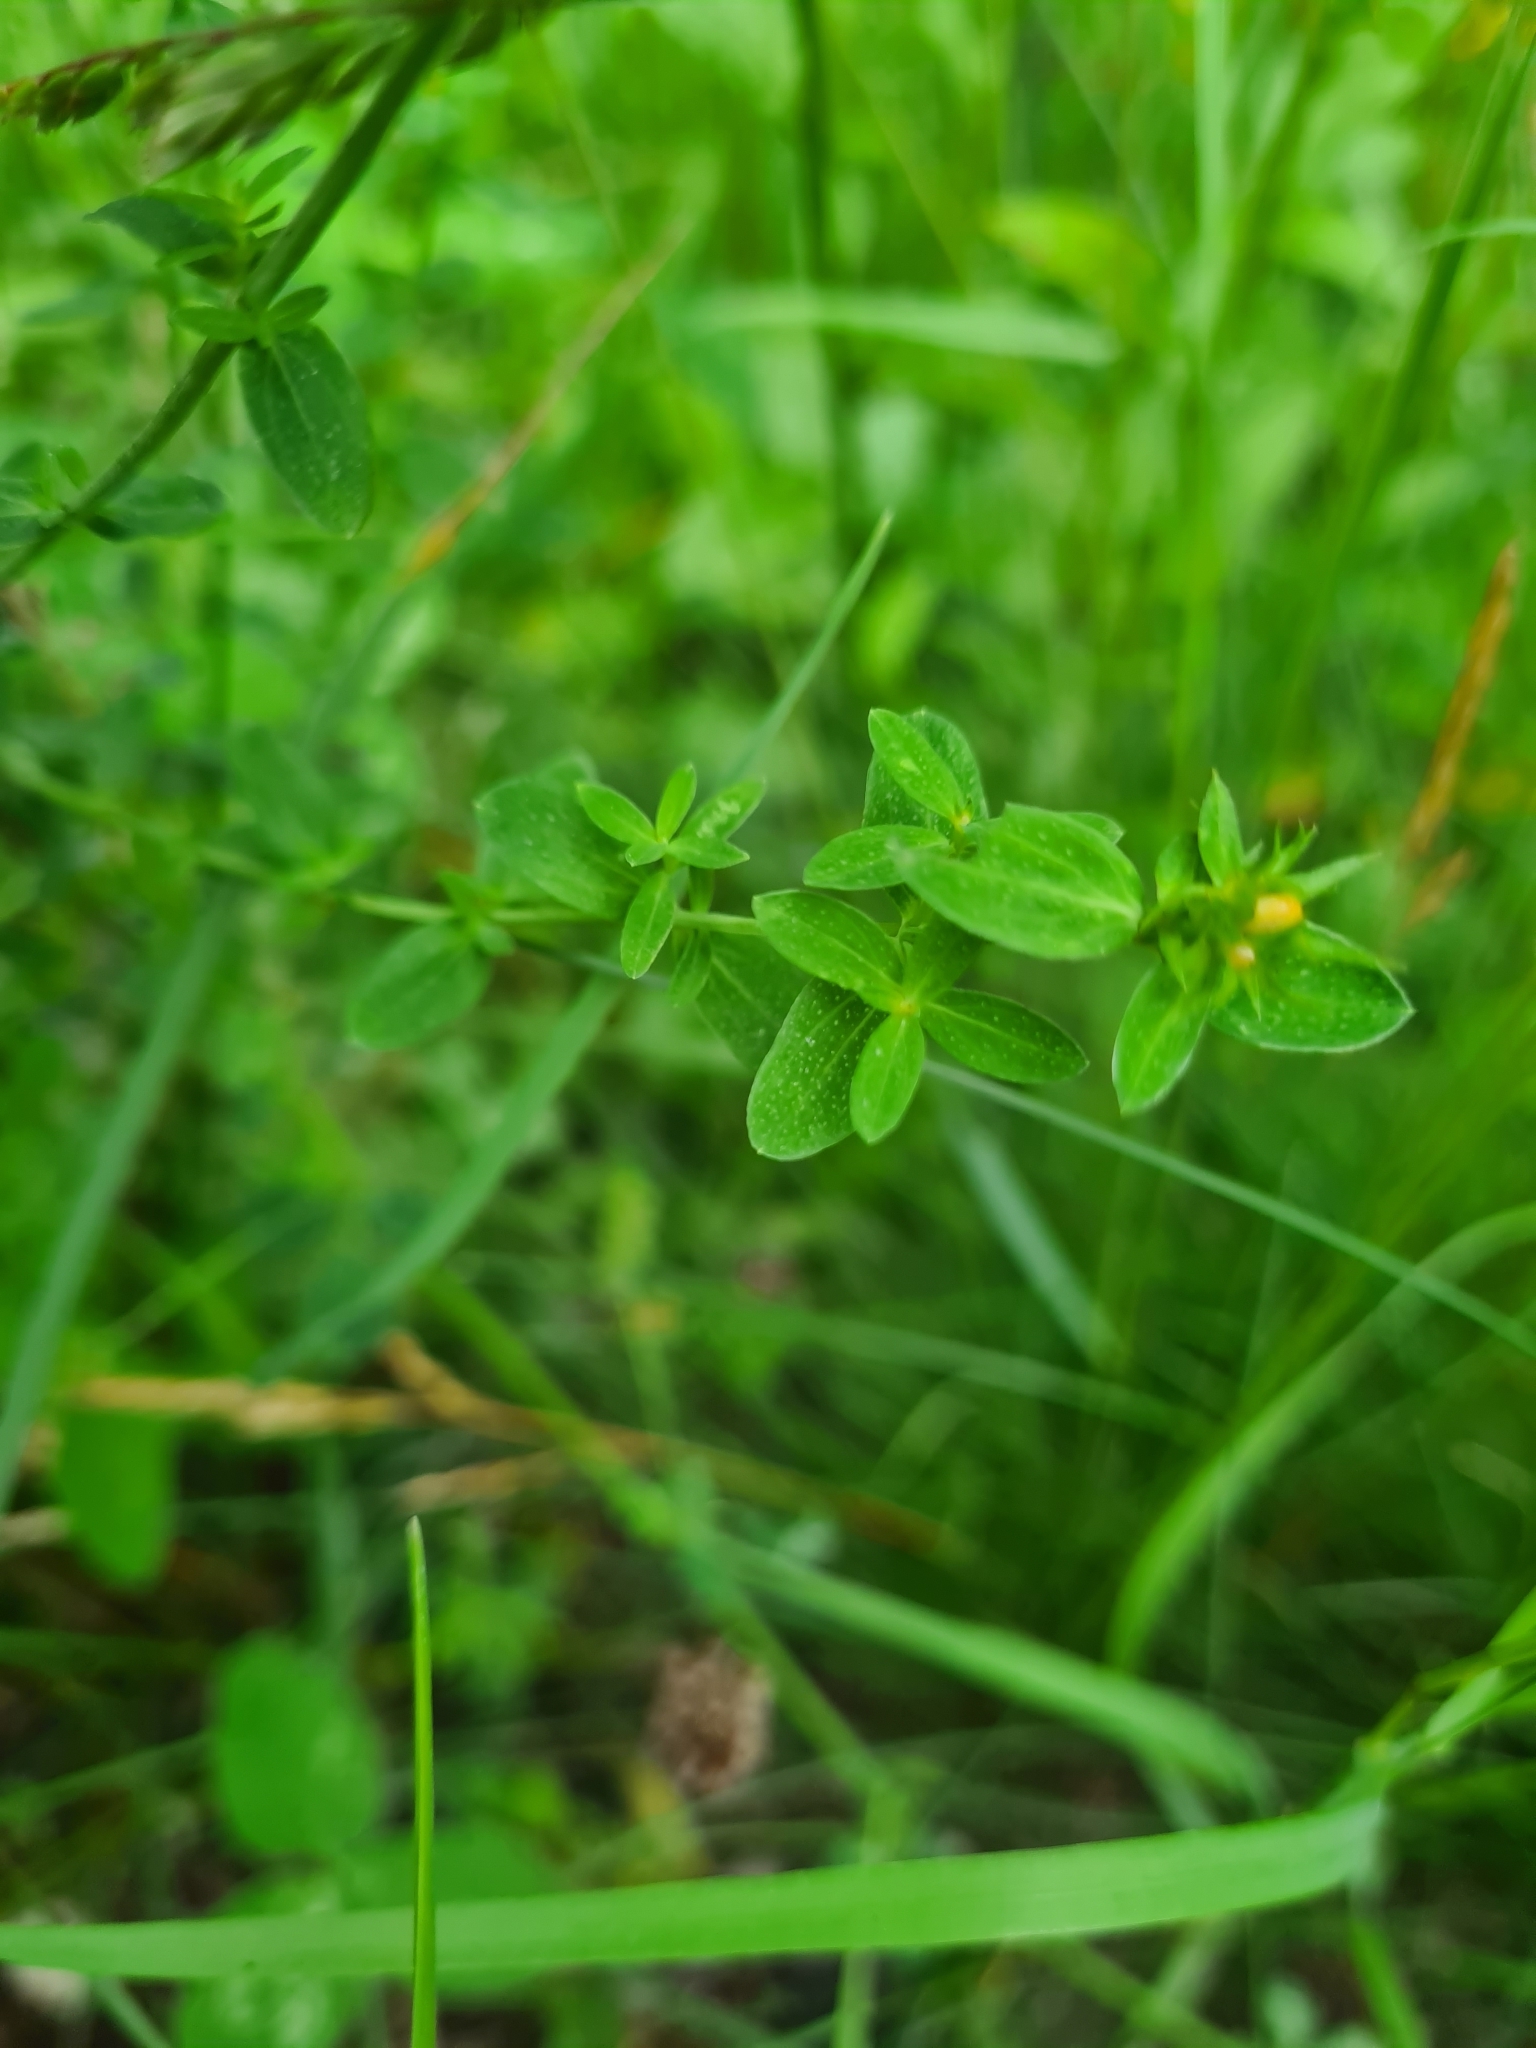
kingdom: Plantae
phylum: Tracheophyta
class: Magnoliopsida
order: Malpighiales
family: Hypericaceae
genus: Hypericum
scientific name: Hypericum perforatum
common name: Common st. johnswort
